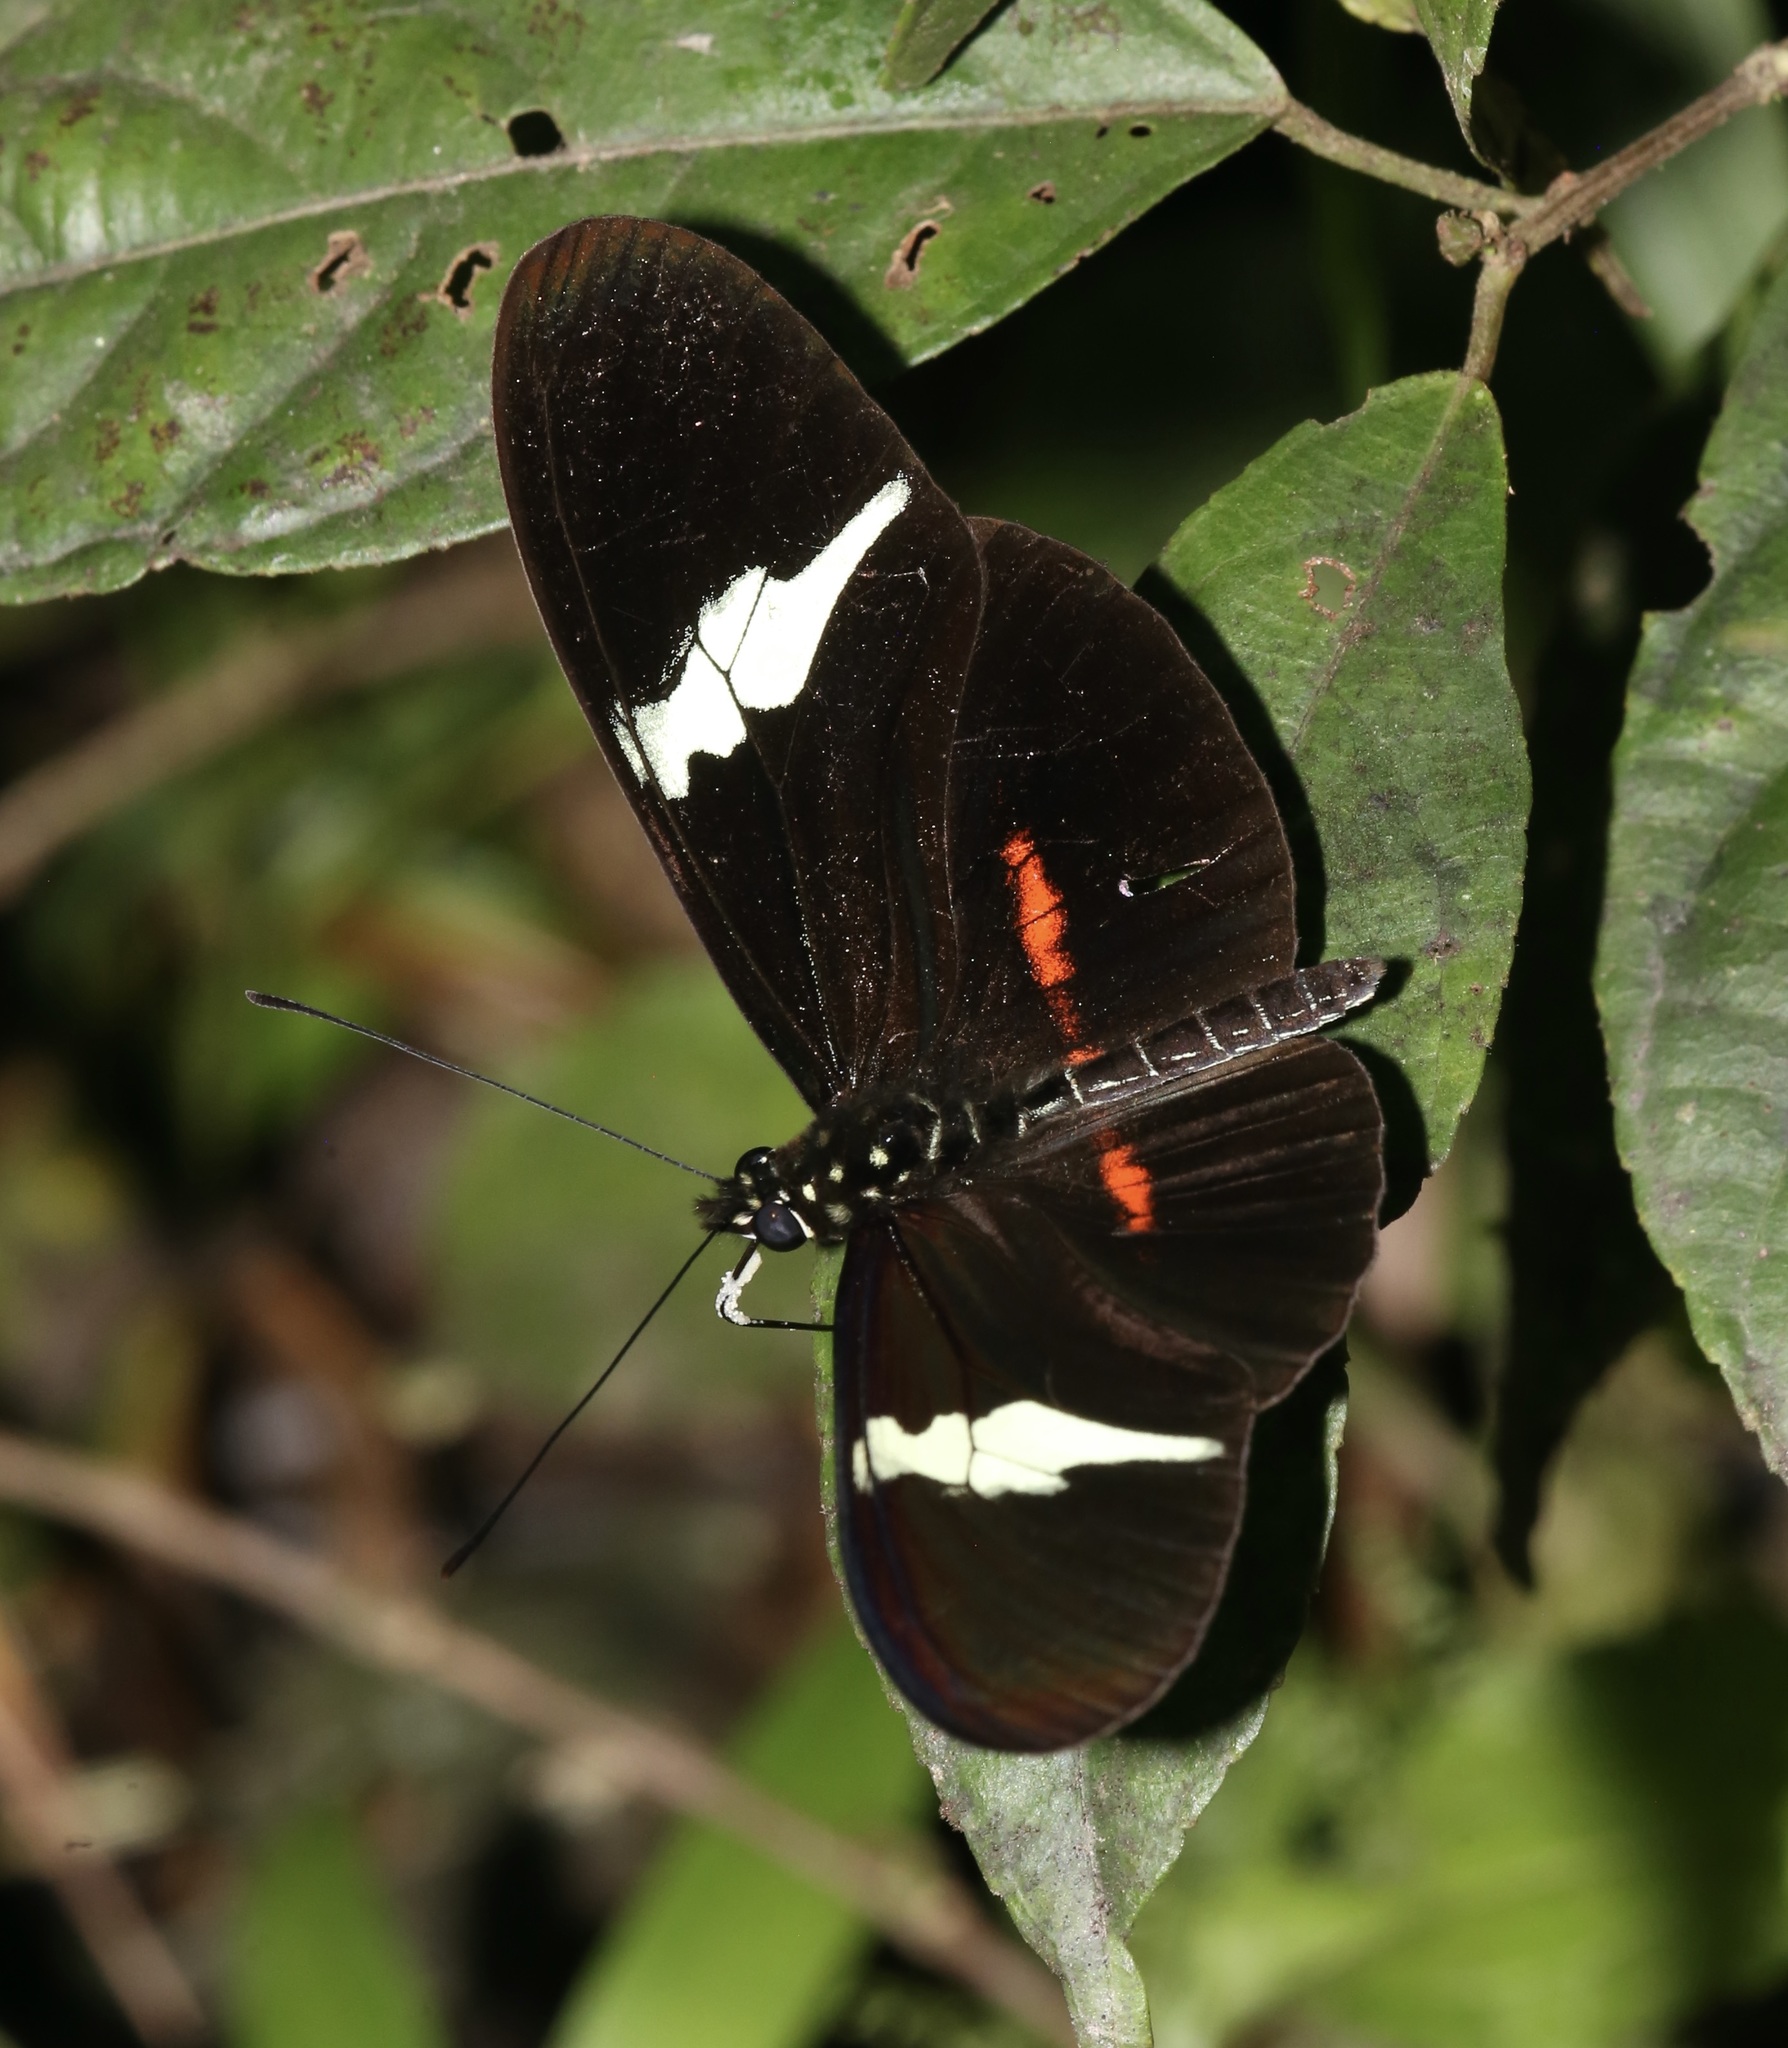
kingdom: Animalia
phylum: Arthropoda
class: Insecta
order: Lepidoptera
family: Nymphalidae
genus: Heliconius
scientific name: Heliconius clysonymus
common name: Clysonymus longwing
